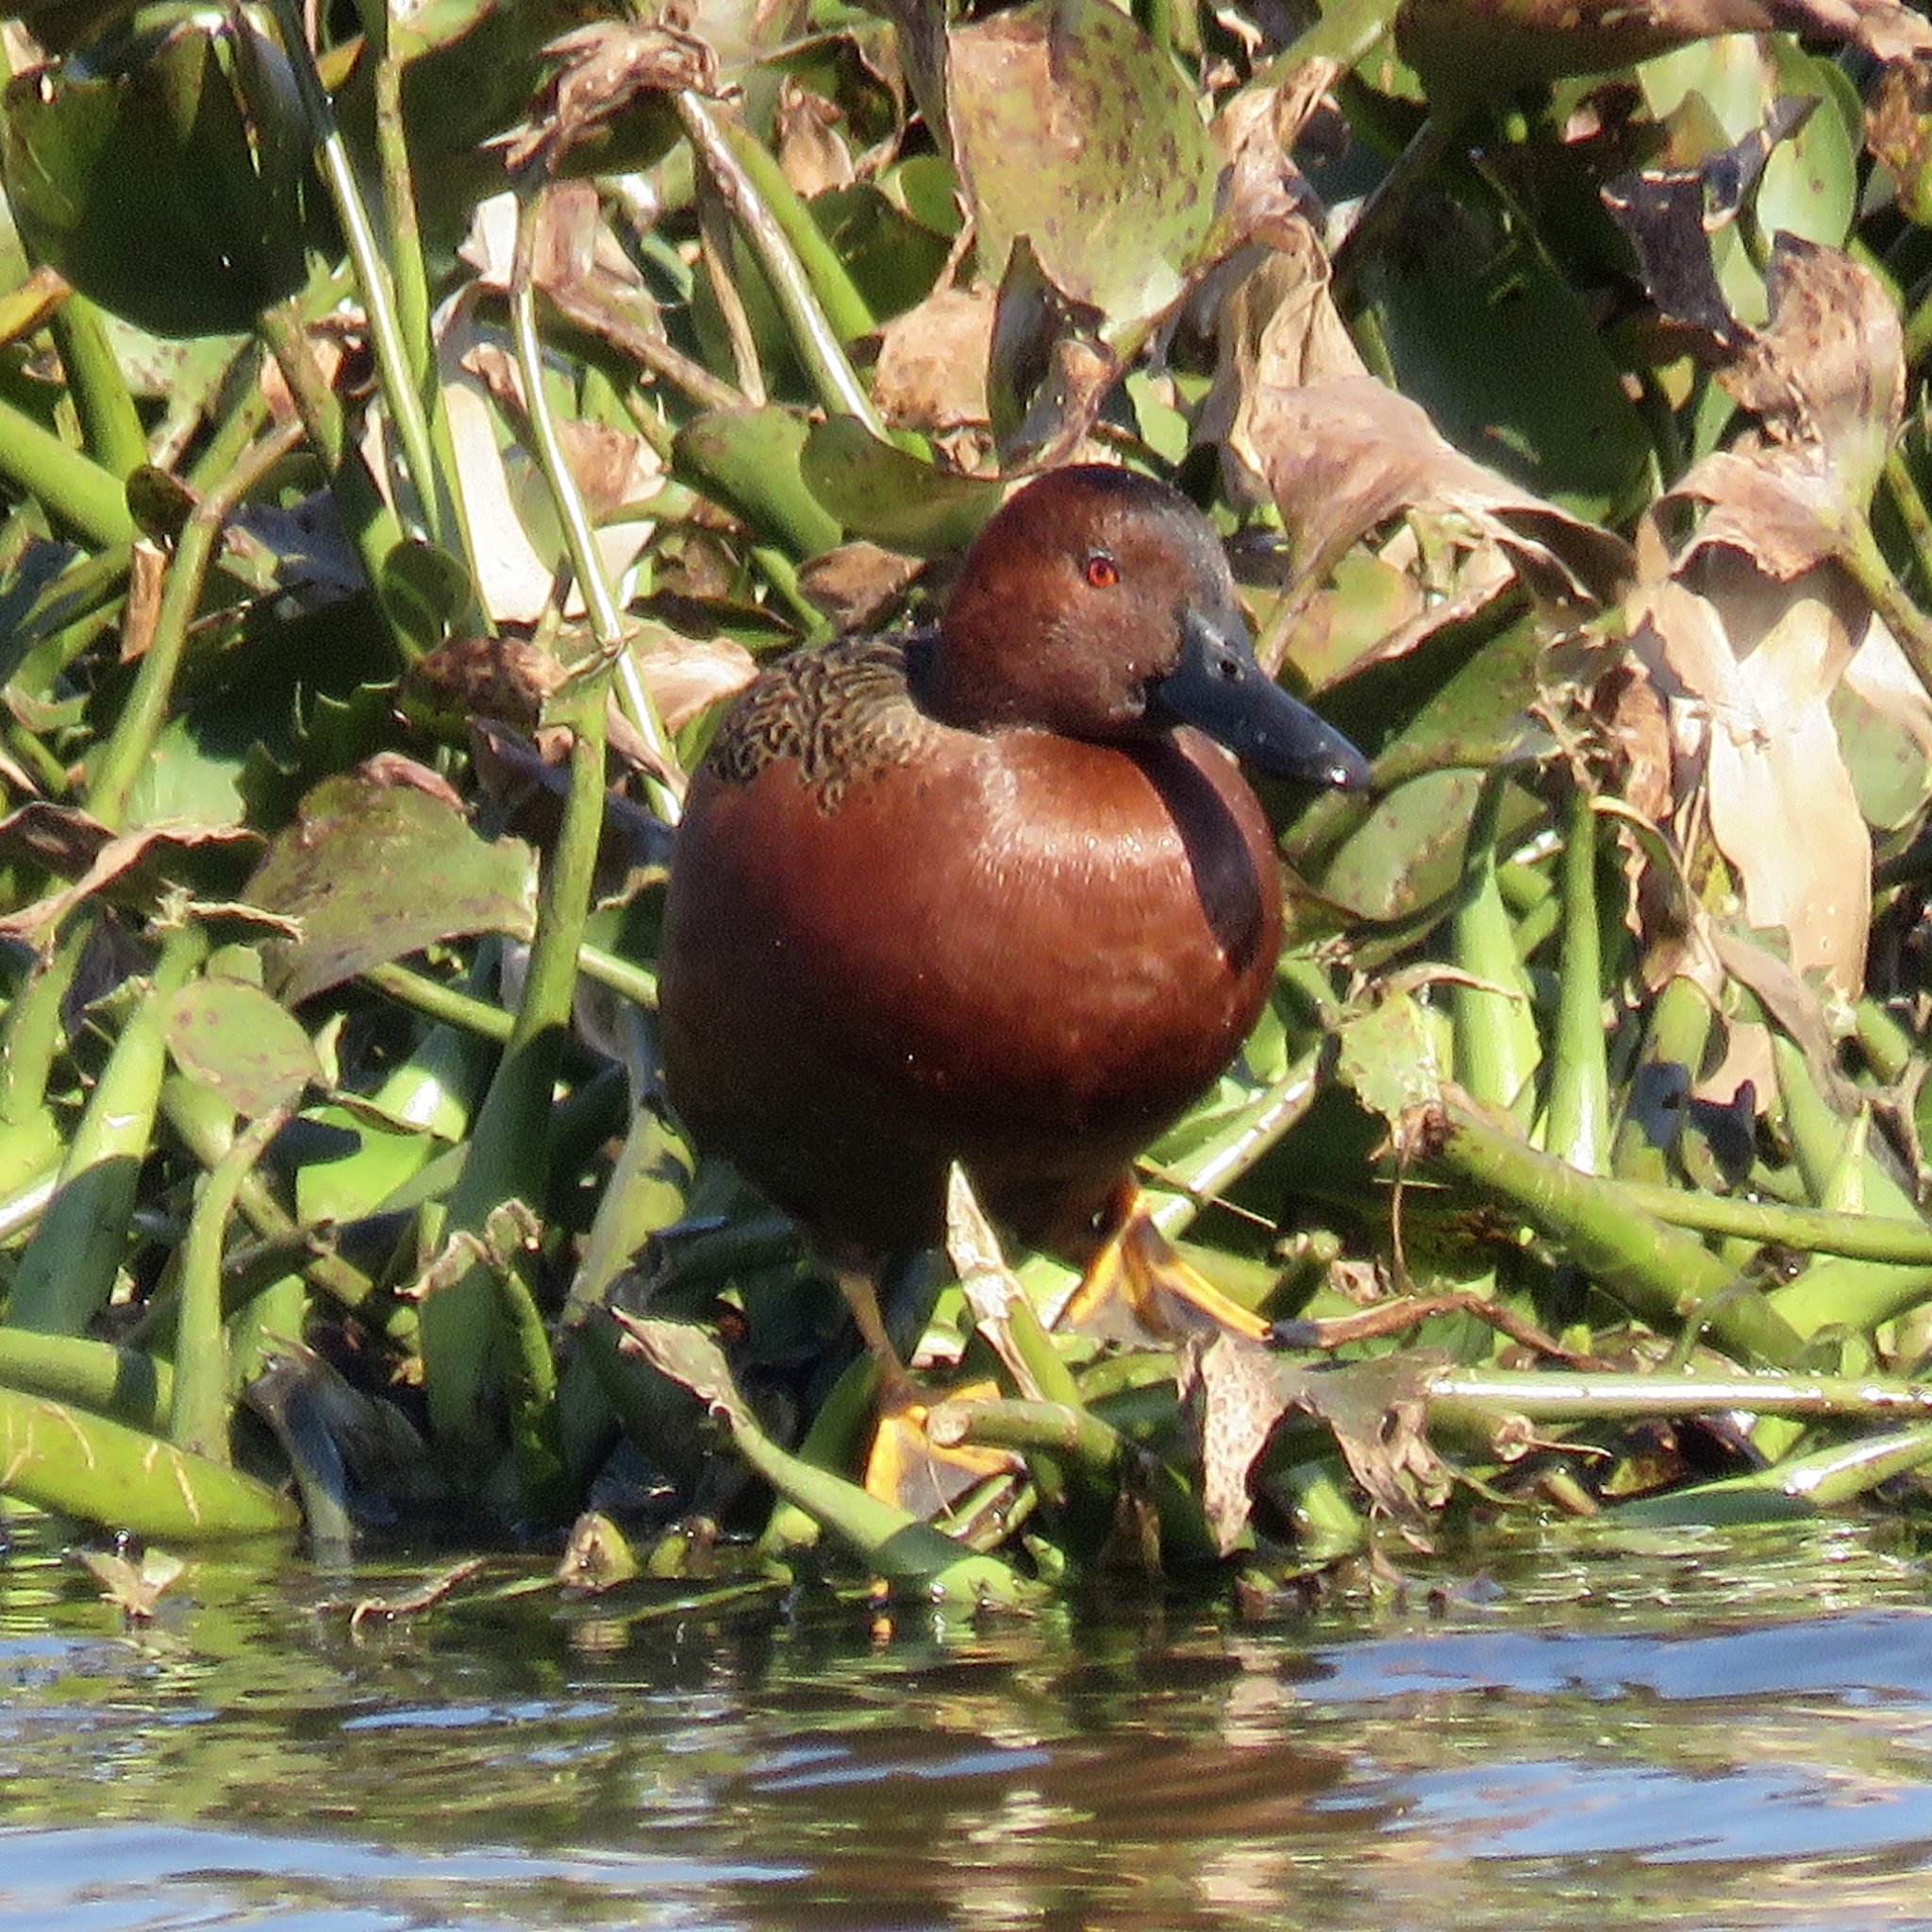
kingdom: Animalia
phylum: Chordata
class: Aves
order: Anseriformes
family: Anatidae
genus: Spatula
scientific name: Spatula cyanoptera
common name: Cinnamon teal
